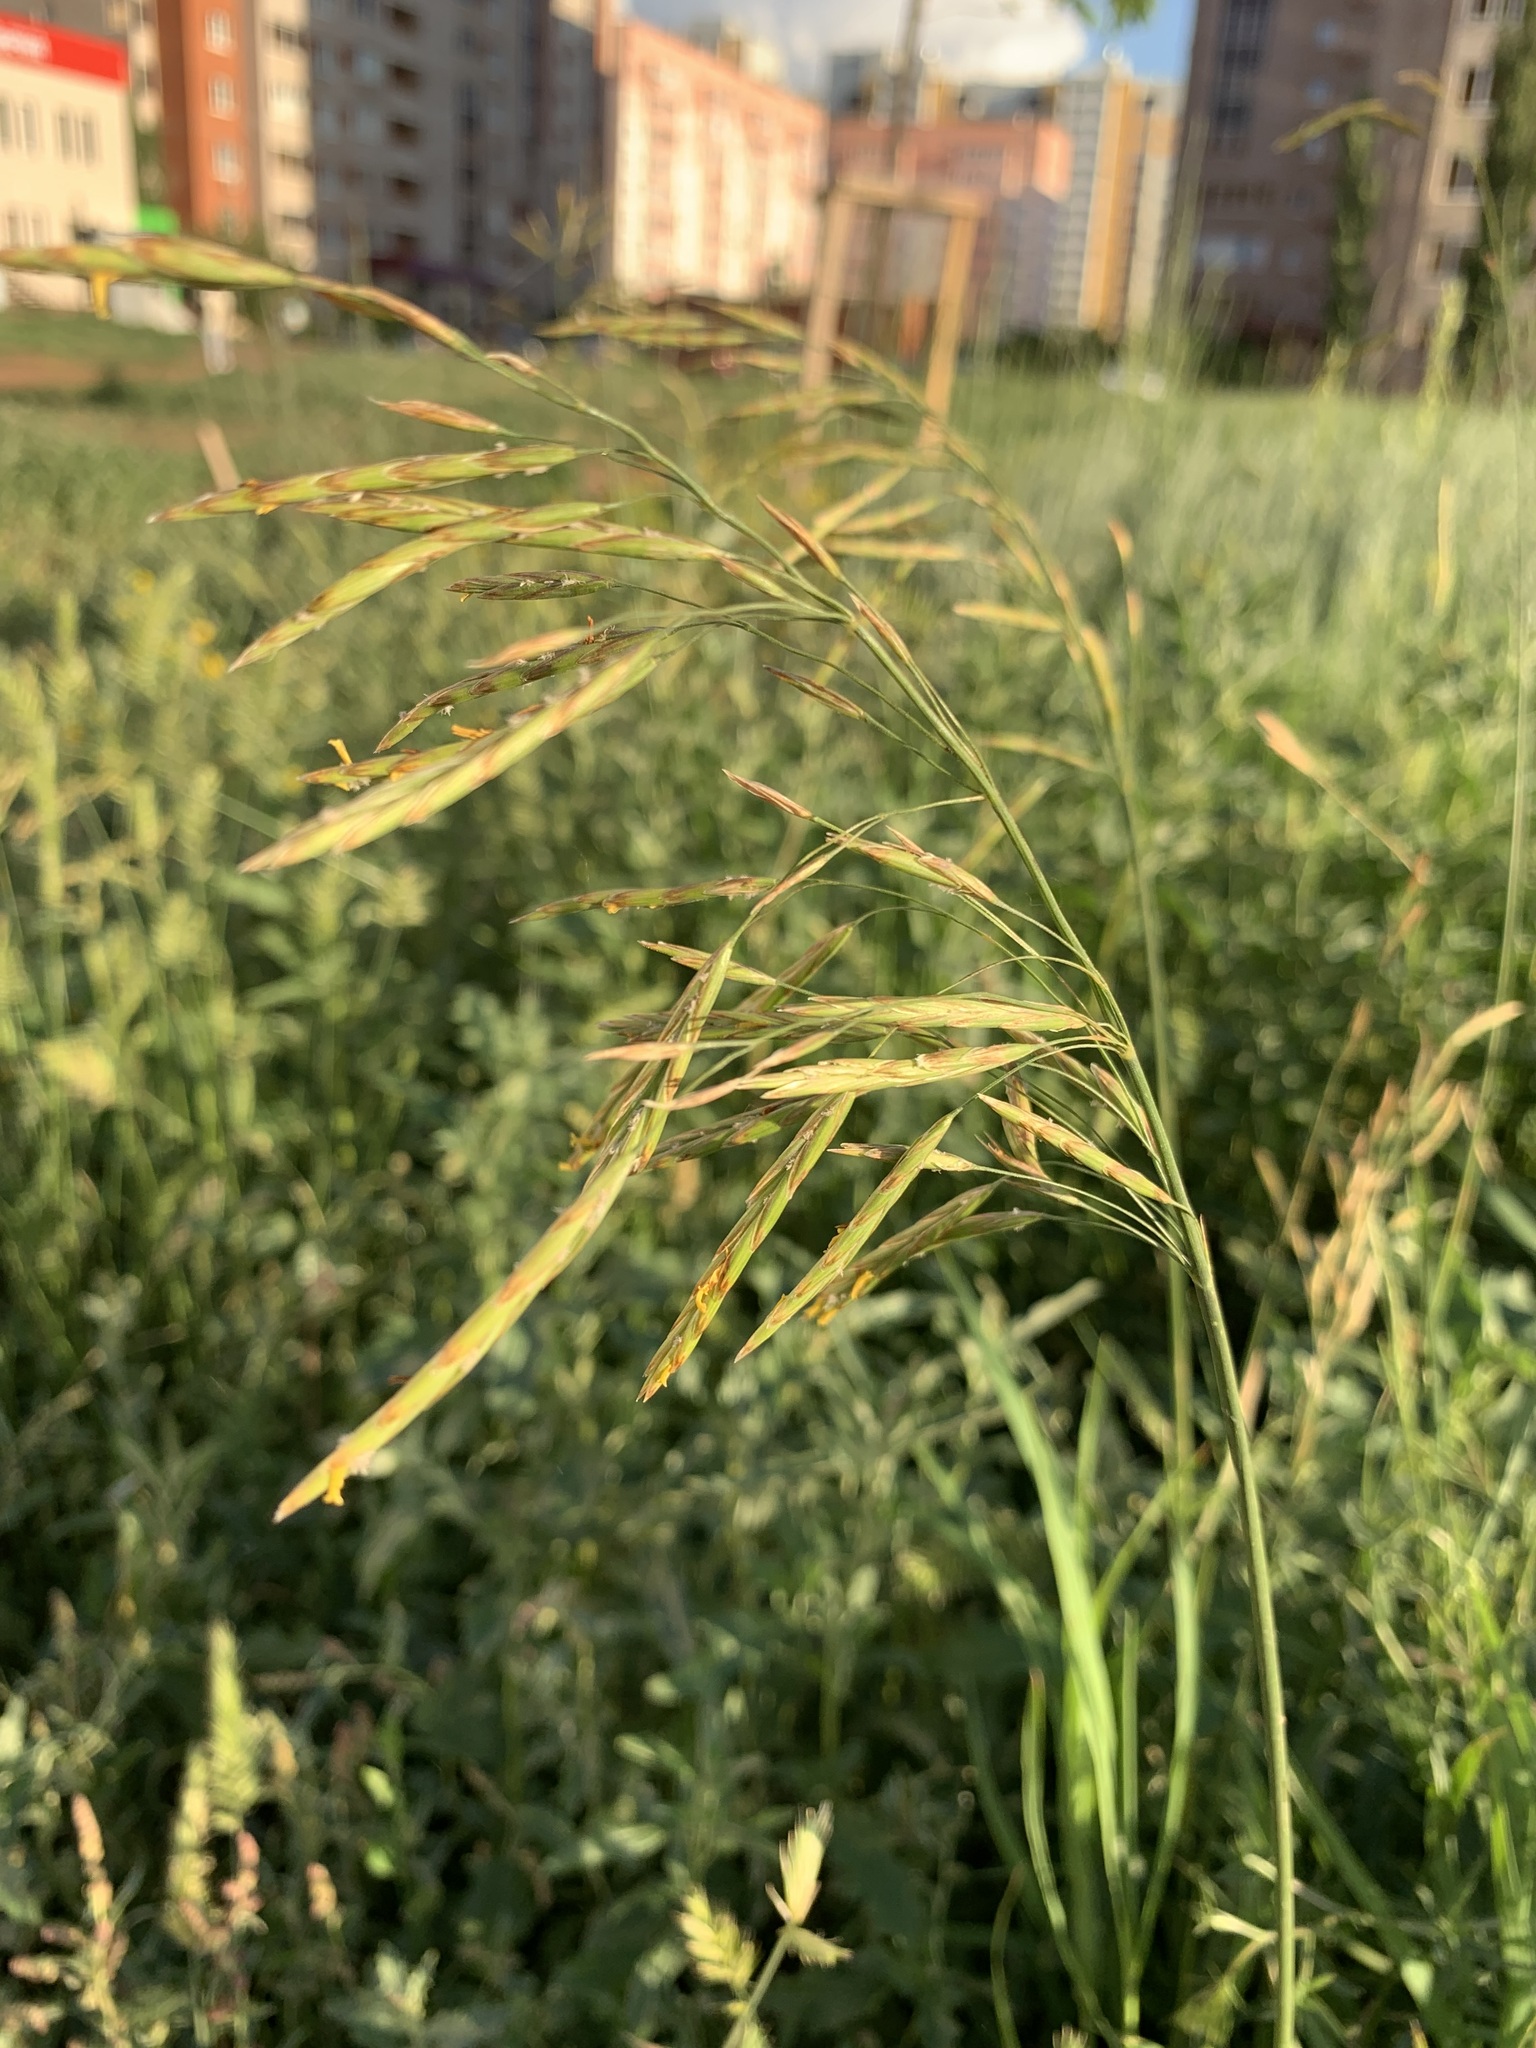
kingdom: Plantae
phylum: Tracheophyta
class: Liliopsida
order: Poales
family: Poaceae
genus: Bromus
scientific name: Bromus inermis
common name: Smooth brome
